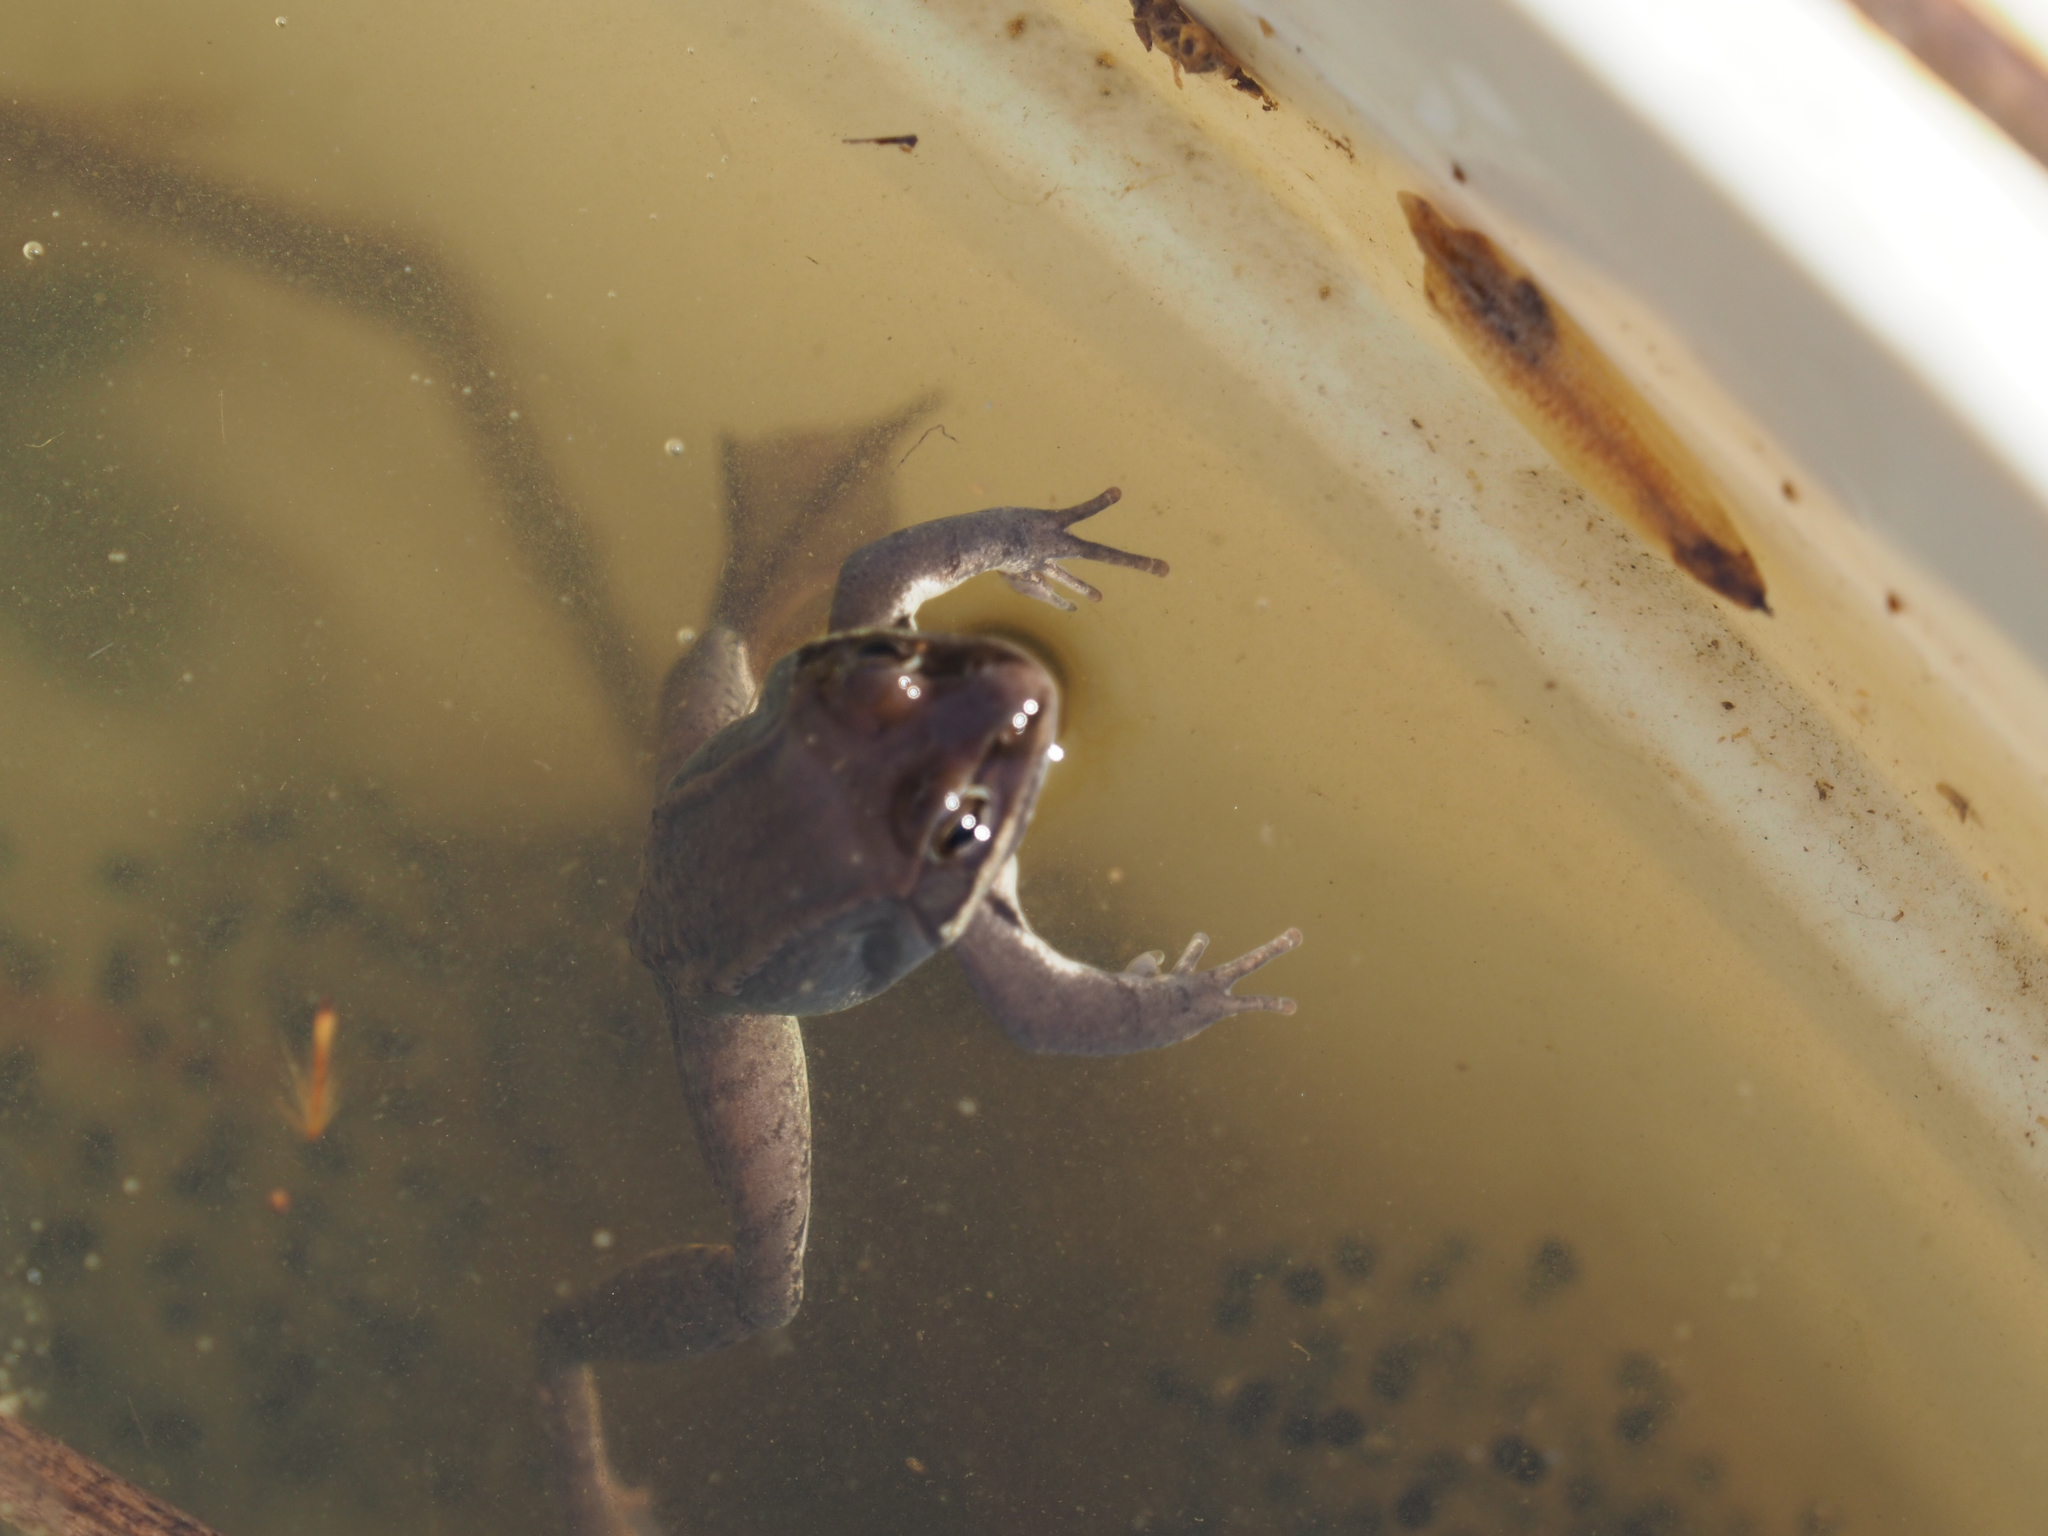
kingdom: Animalia
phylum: Chordata
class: Amphibia
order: Anura
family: Ranidae
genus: Lithobates
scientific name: Lithobates sylvaticus
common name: Wood frog
